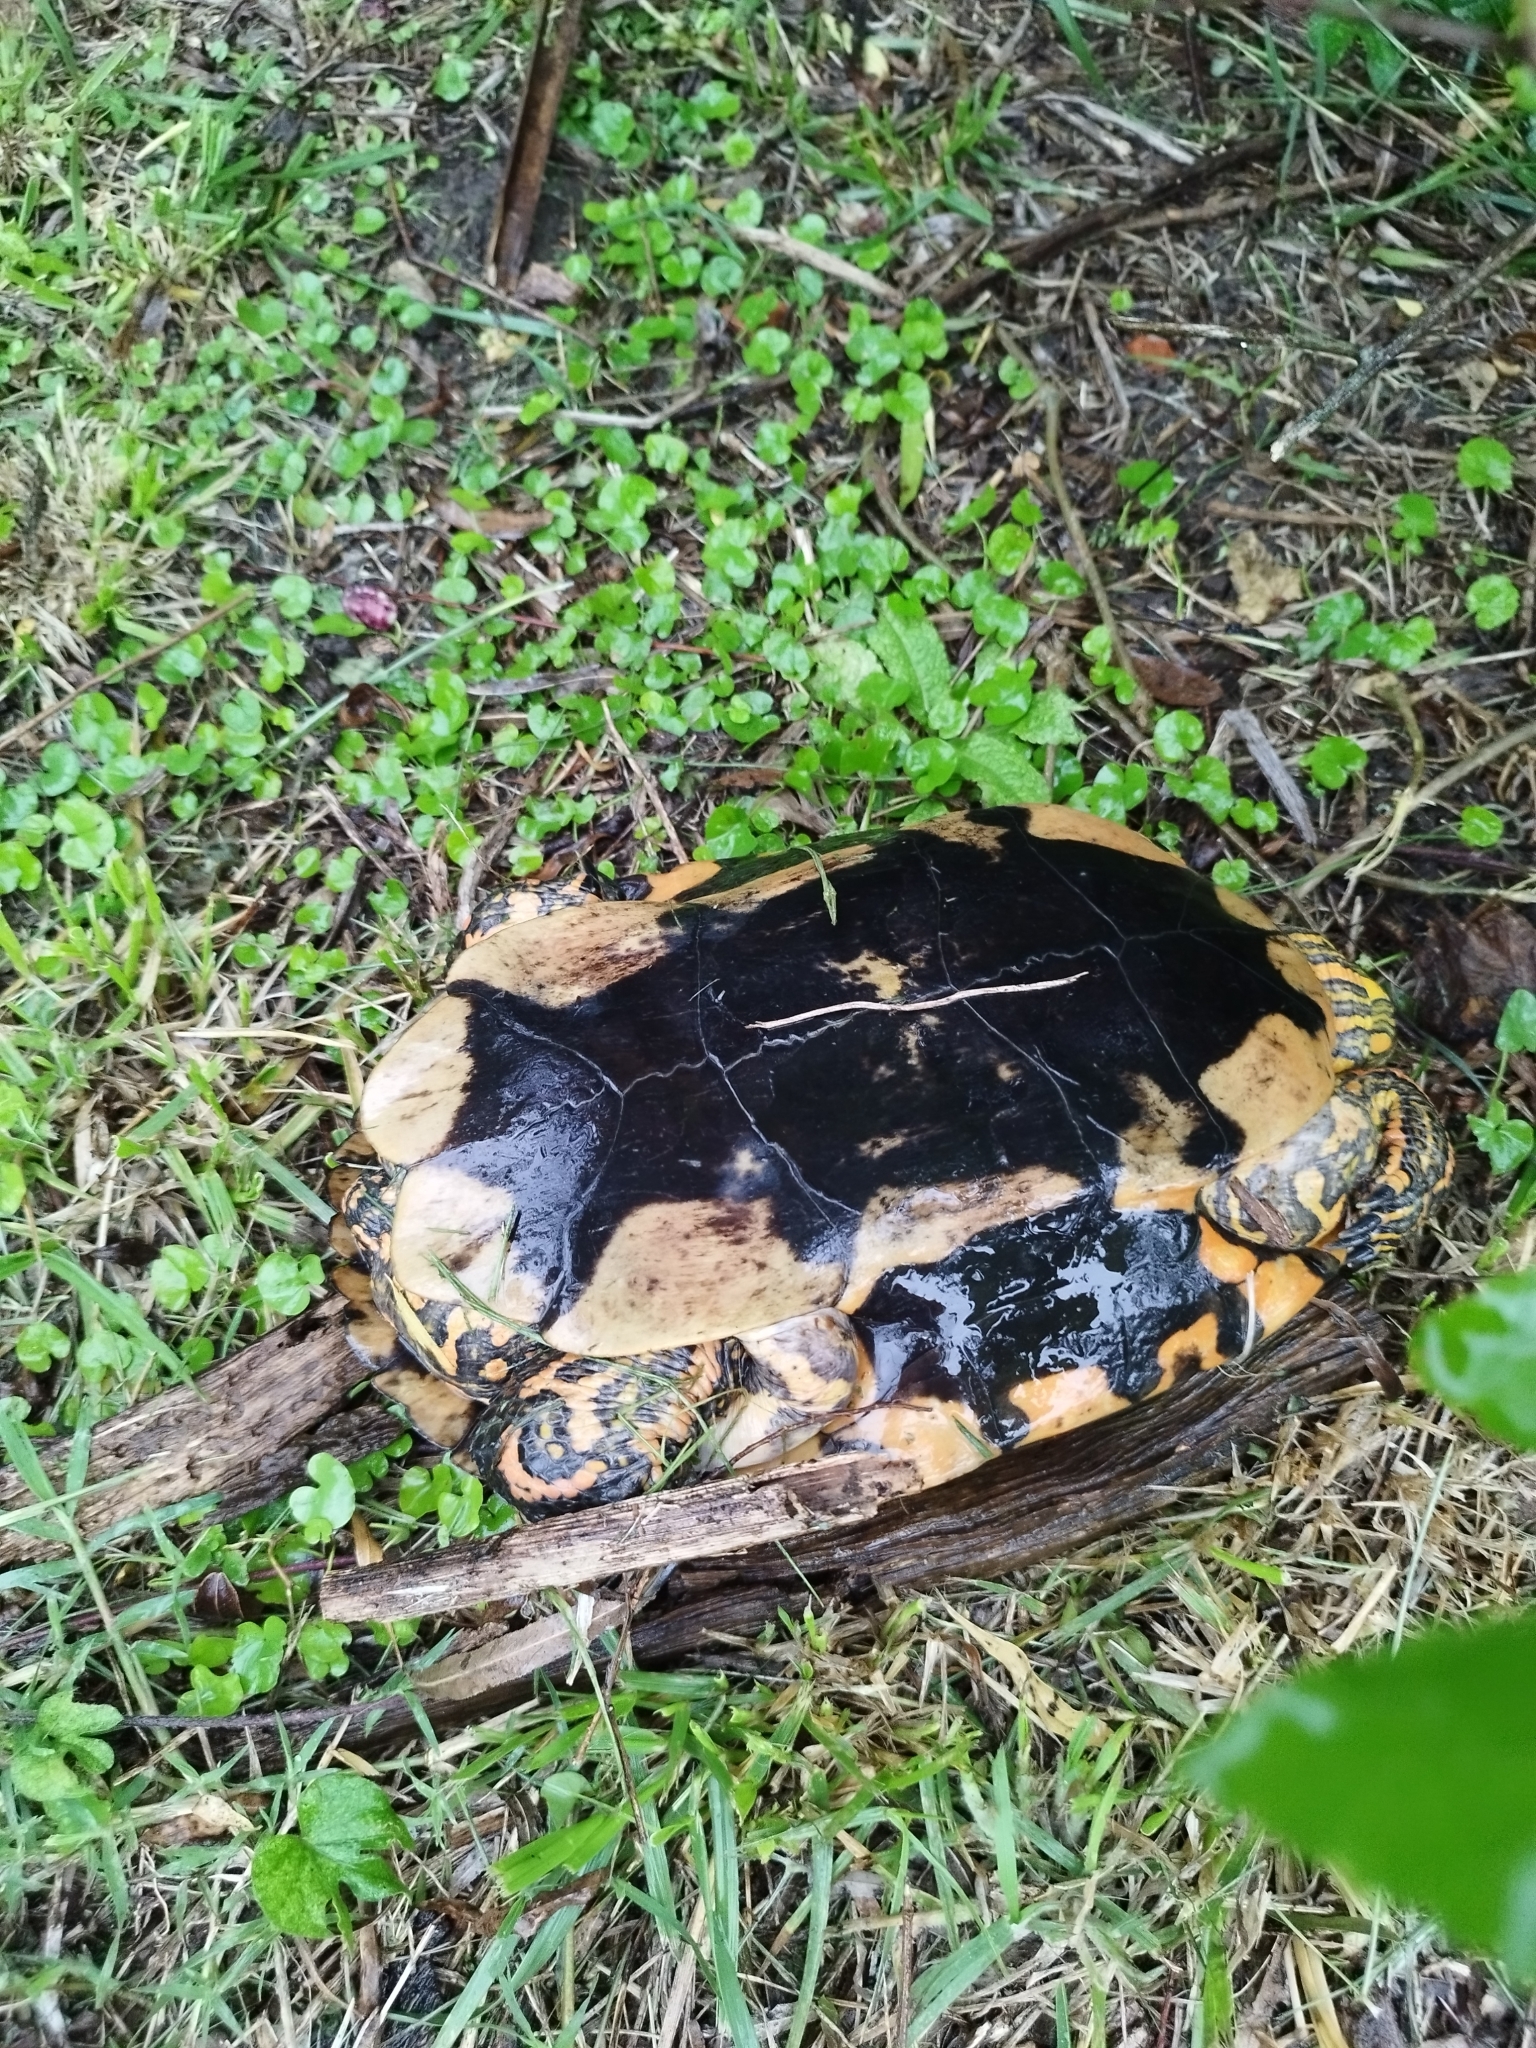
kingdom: Animalia
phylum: Chordata
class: Testudines
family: Emydidae
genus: Trachemys
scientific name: Trachemys dorbigni
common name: Black-bellied slider
